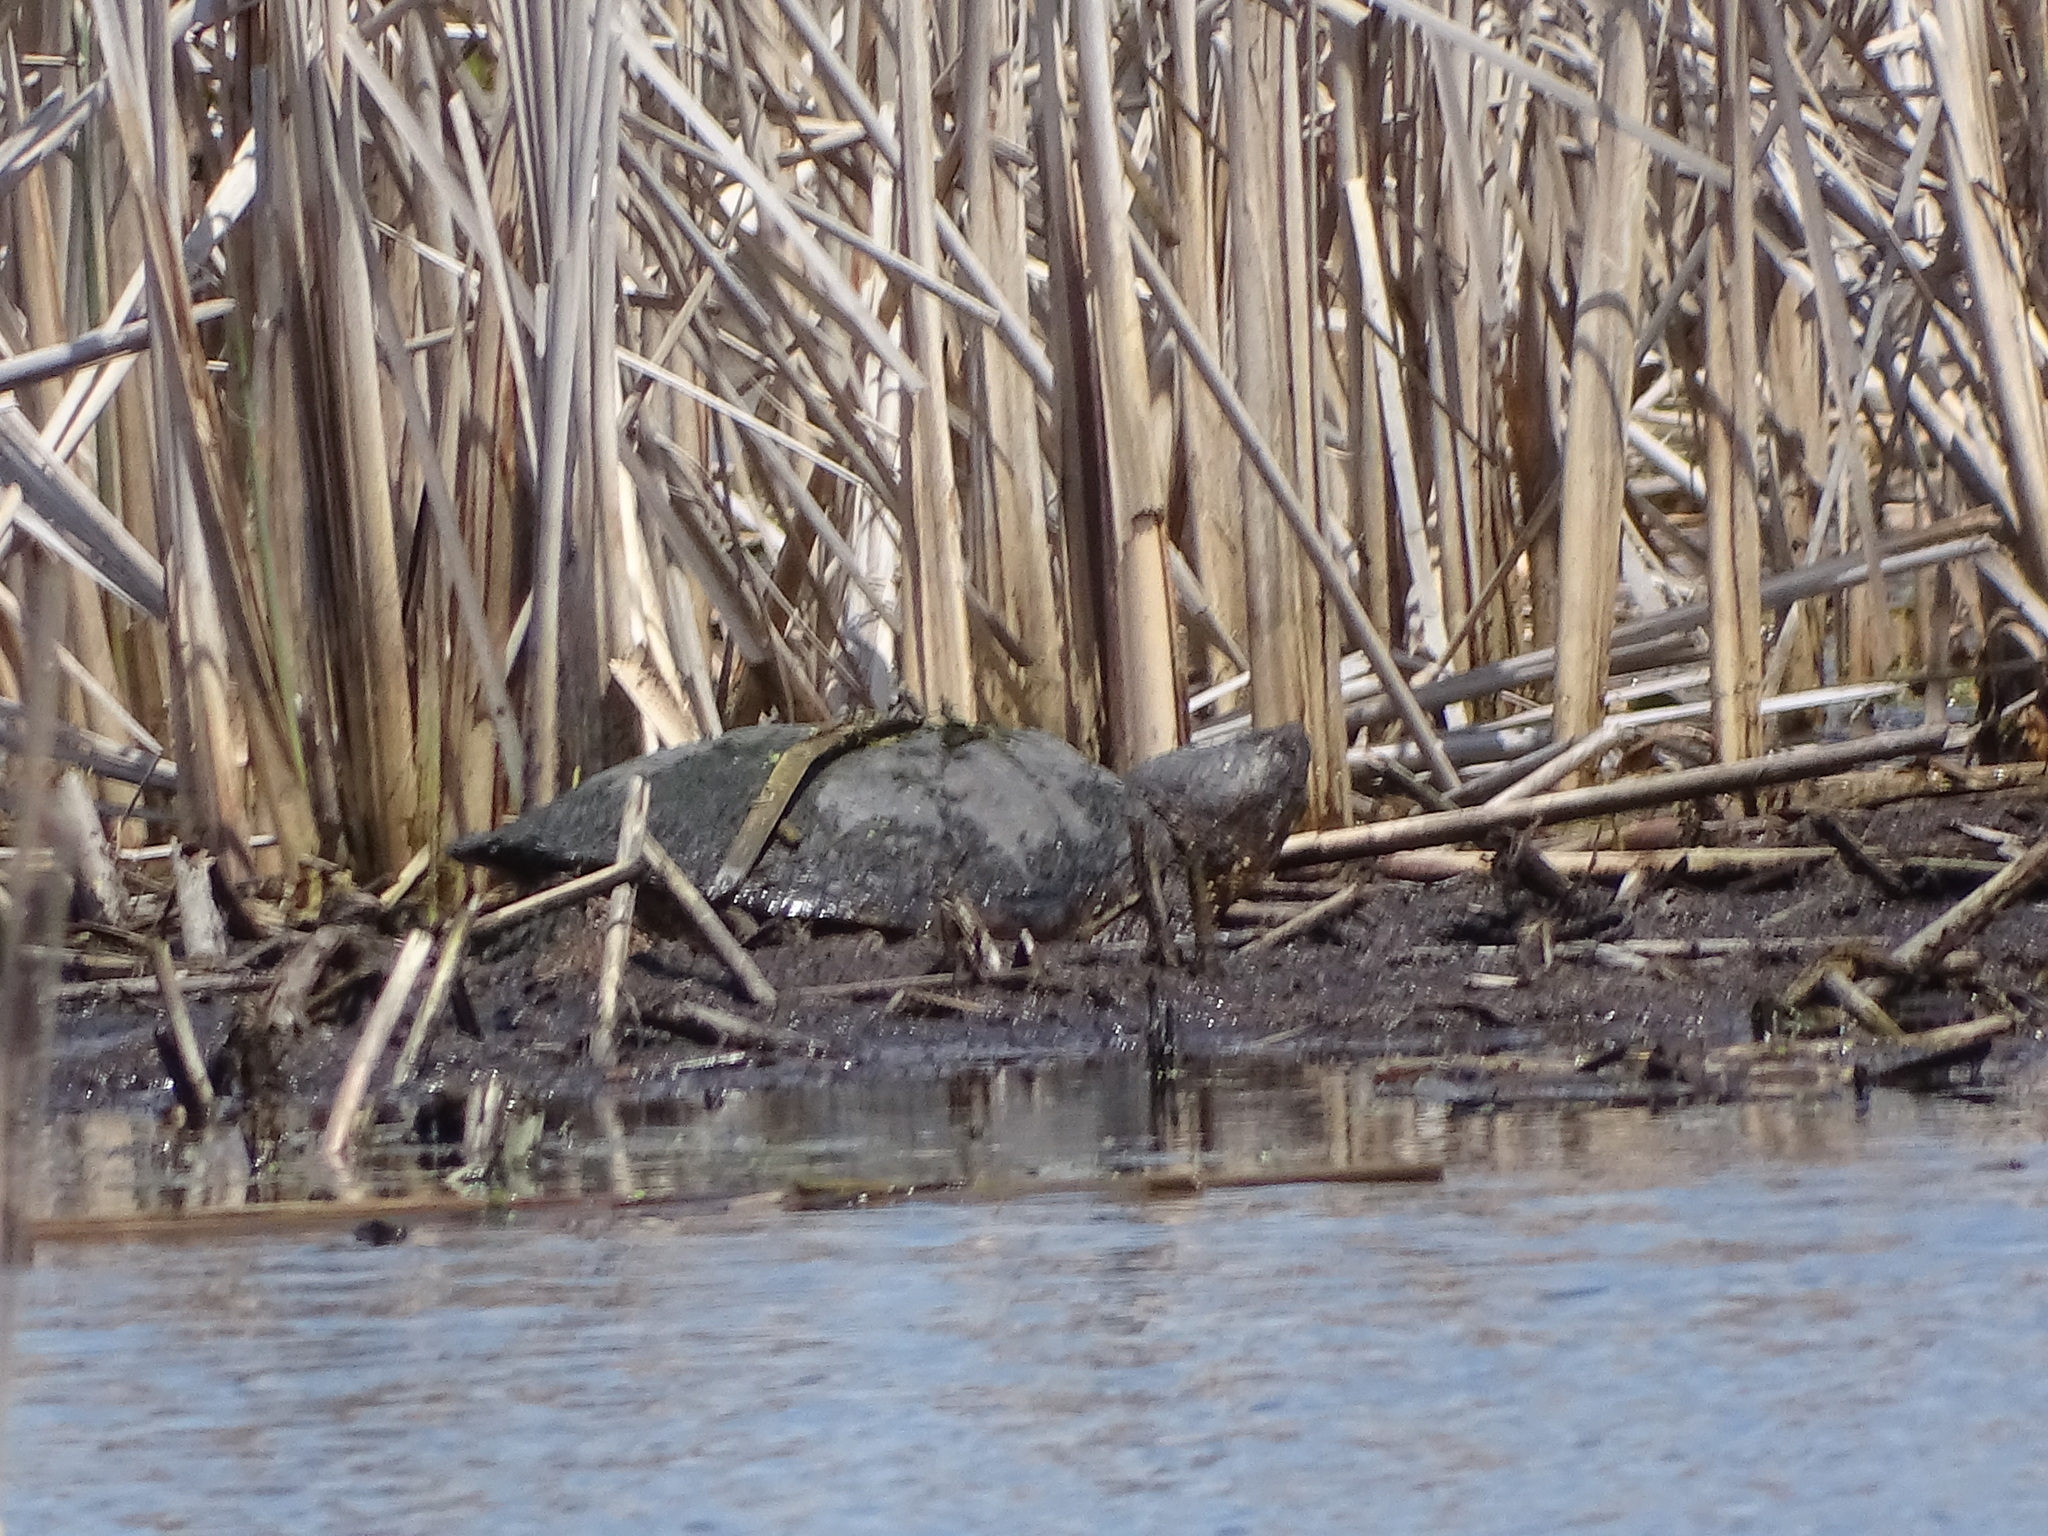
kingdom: Animalia
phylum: Chordata
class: Testudines
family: Chelydridae
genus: Chelydra
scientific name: Chelydra serpentina
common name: Common snapping turtle
